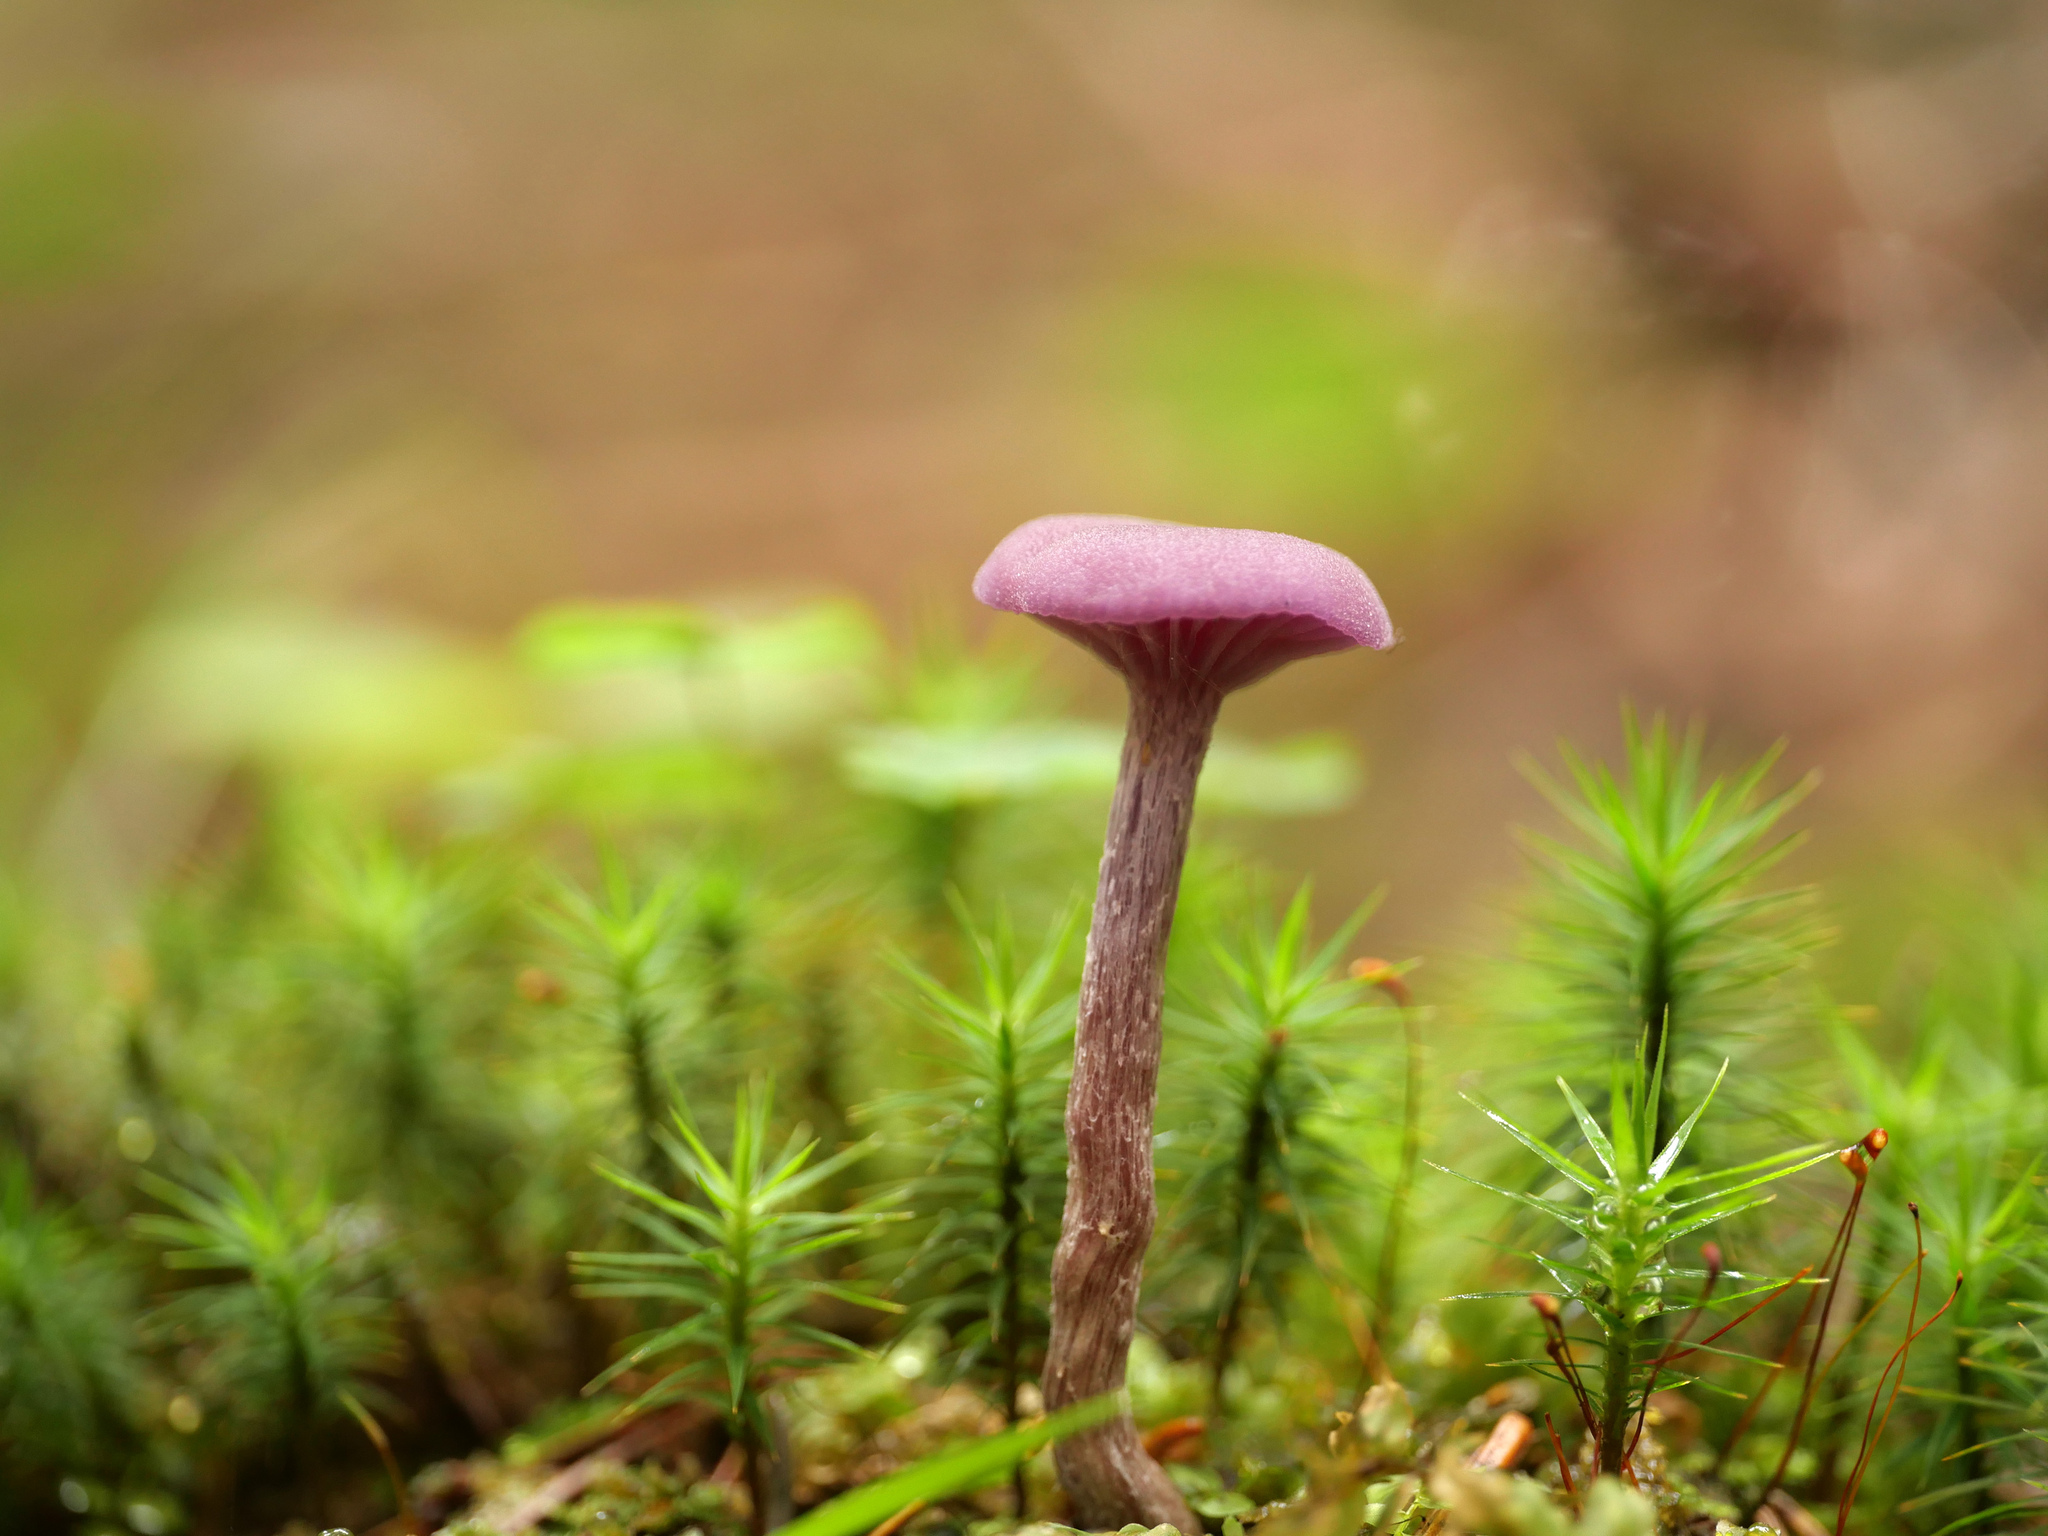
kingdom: Fungi
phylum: Basidiomycota
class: Agaricomycetes
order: Agaricales
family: Hydnangiaceae
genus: Laccaria
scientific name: Laccaria amethystina
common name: Amethyst deceiver
